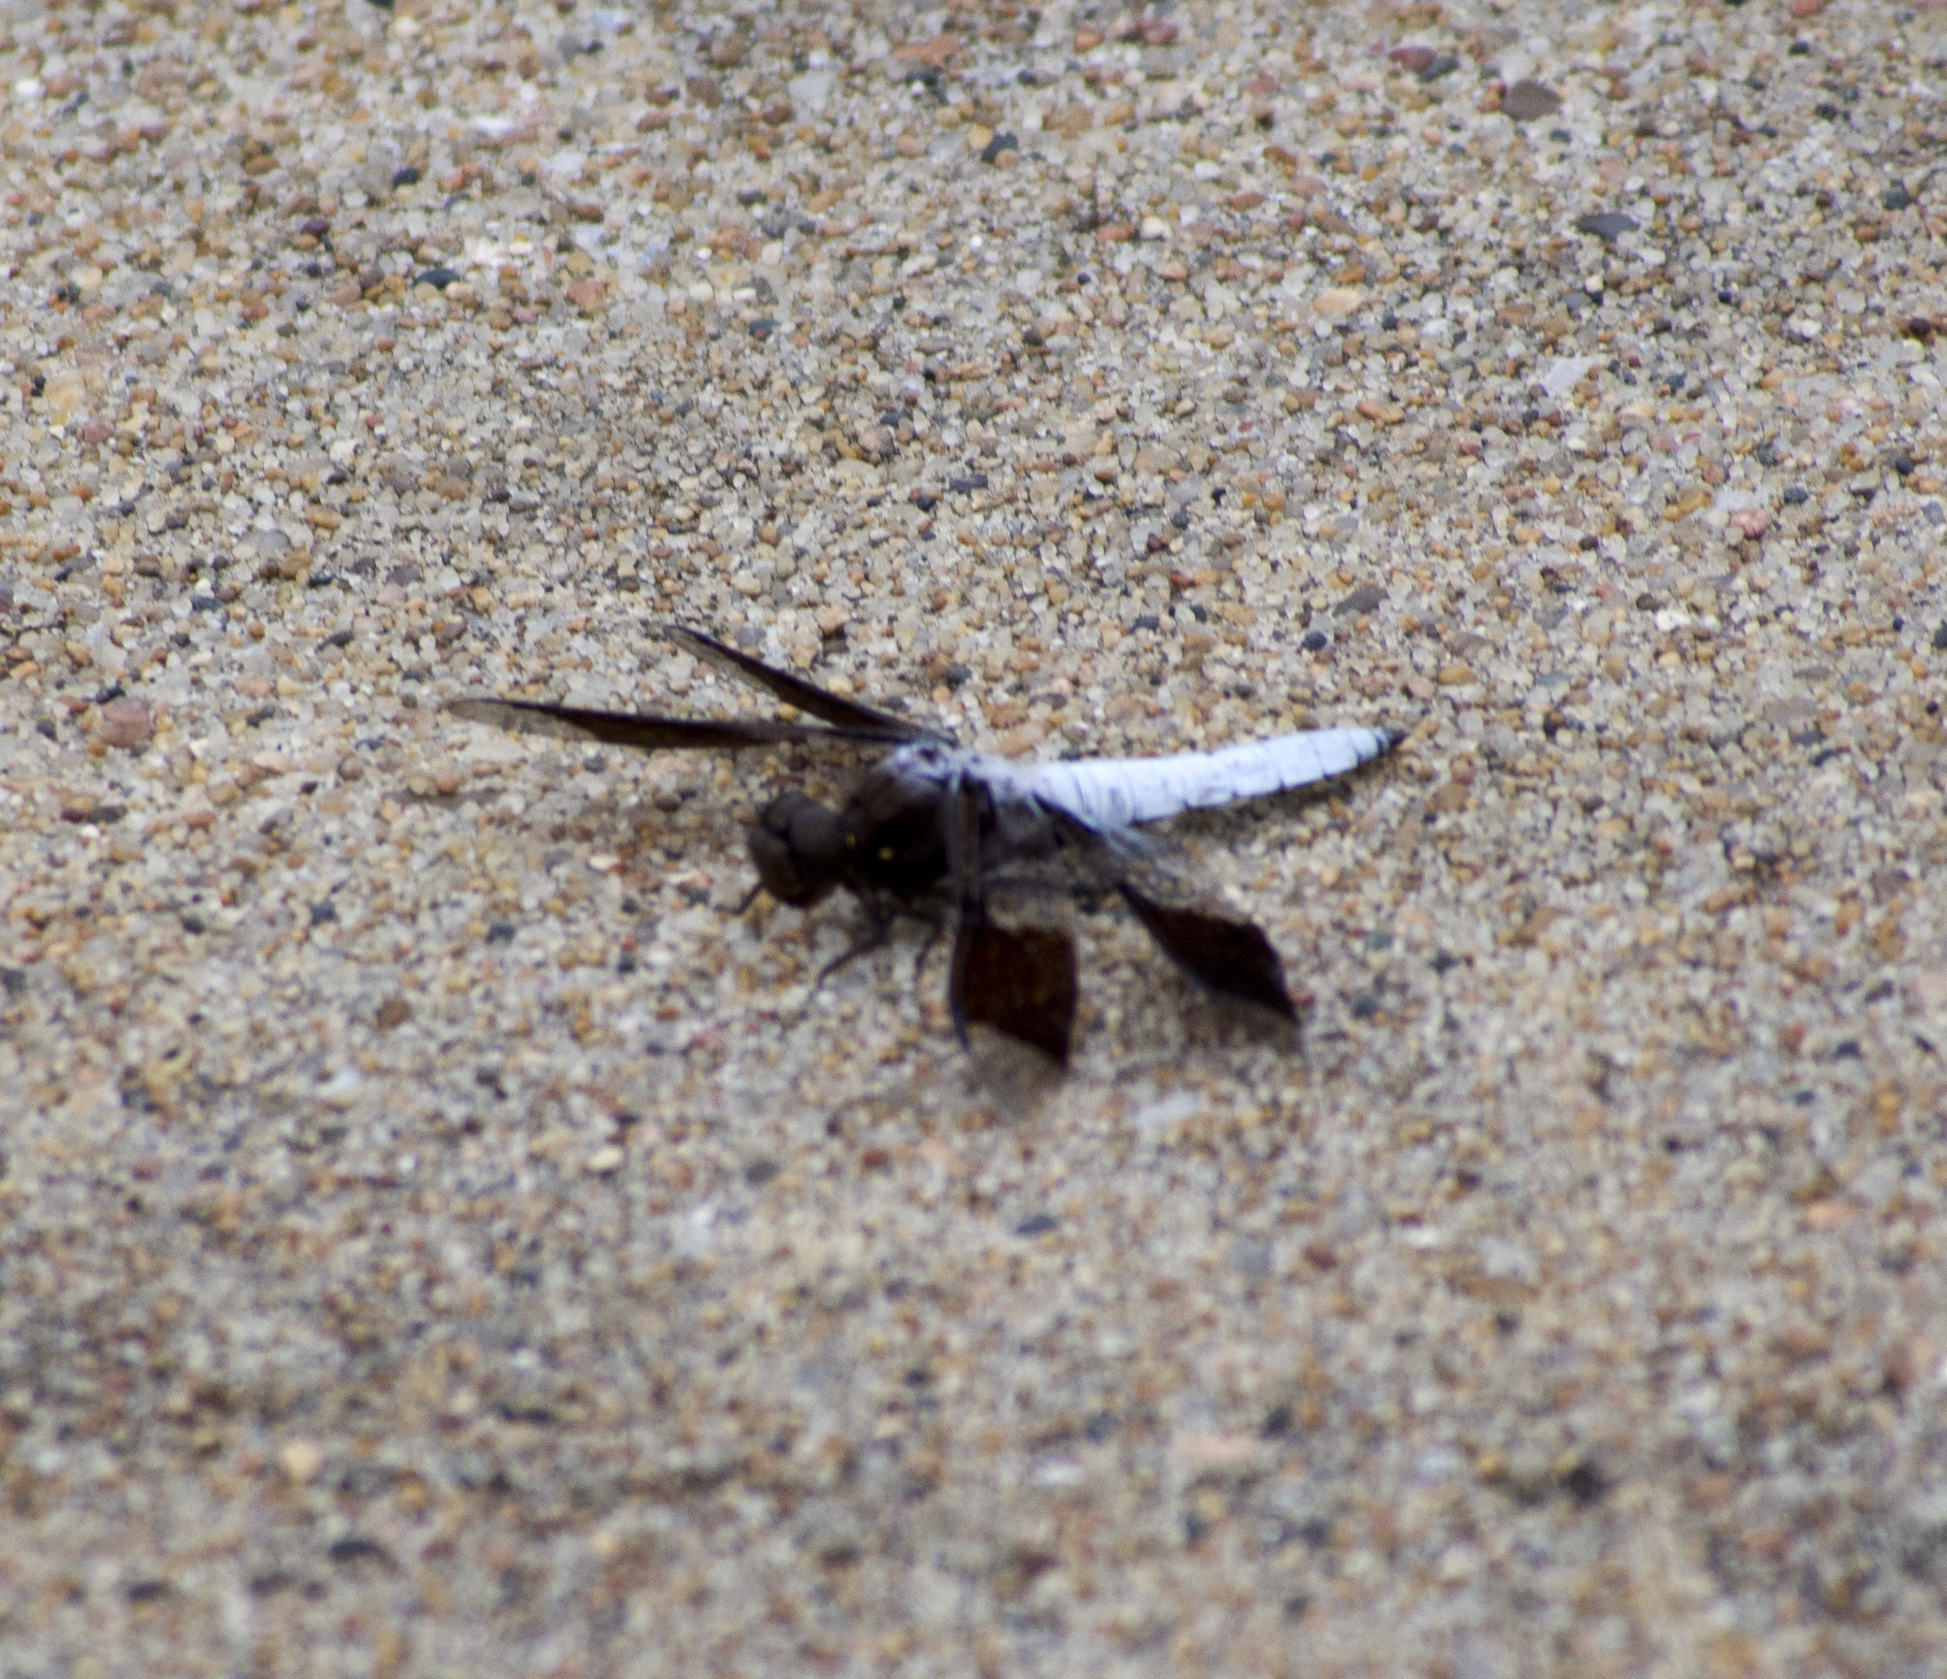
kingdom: Animalia
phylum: Arthropoda
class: Insecta
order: Odonata
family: Libellulidae
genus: Plathemis
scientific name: Plathemis lydia
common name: Common whitetail
